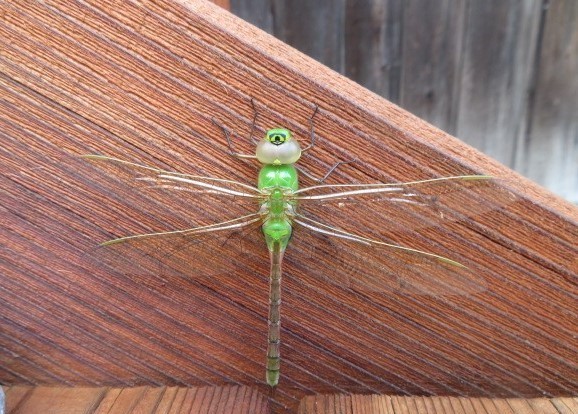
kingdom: Animalia
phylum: Arthropoda
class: Insecta
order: Odonata
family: Aeshnidae
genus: Anax
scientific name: Anax junius
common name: Common green darner
